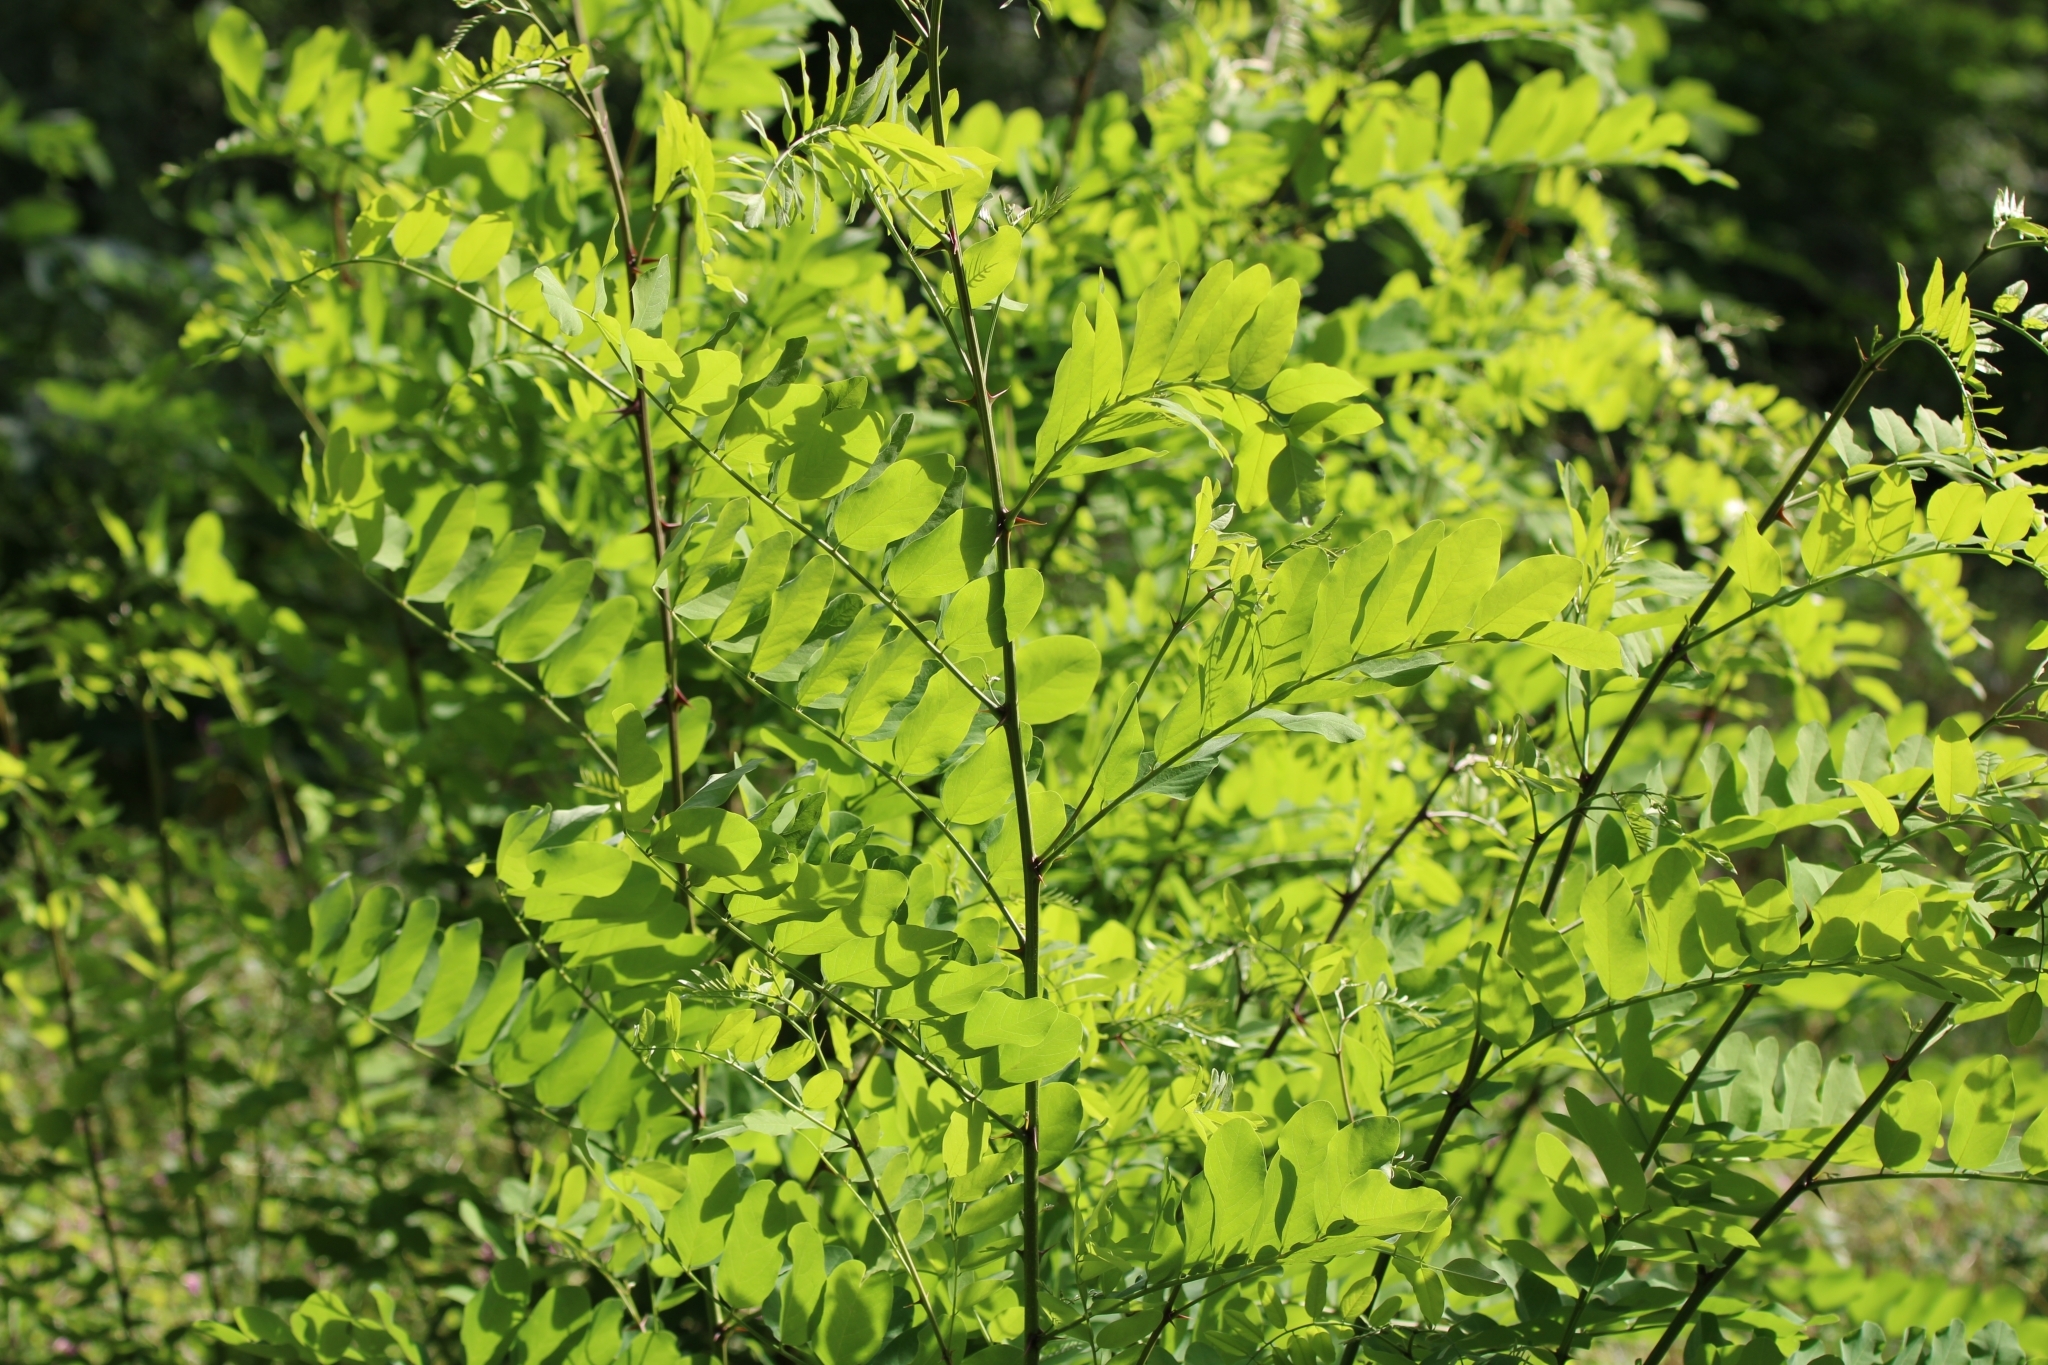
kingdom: Plantae
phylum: Tracheophyta
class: Magnoliopsida
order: Fabales
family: Fabaceae
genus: Robinia
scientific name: Robinia pseudoacacia
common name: Black locust
